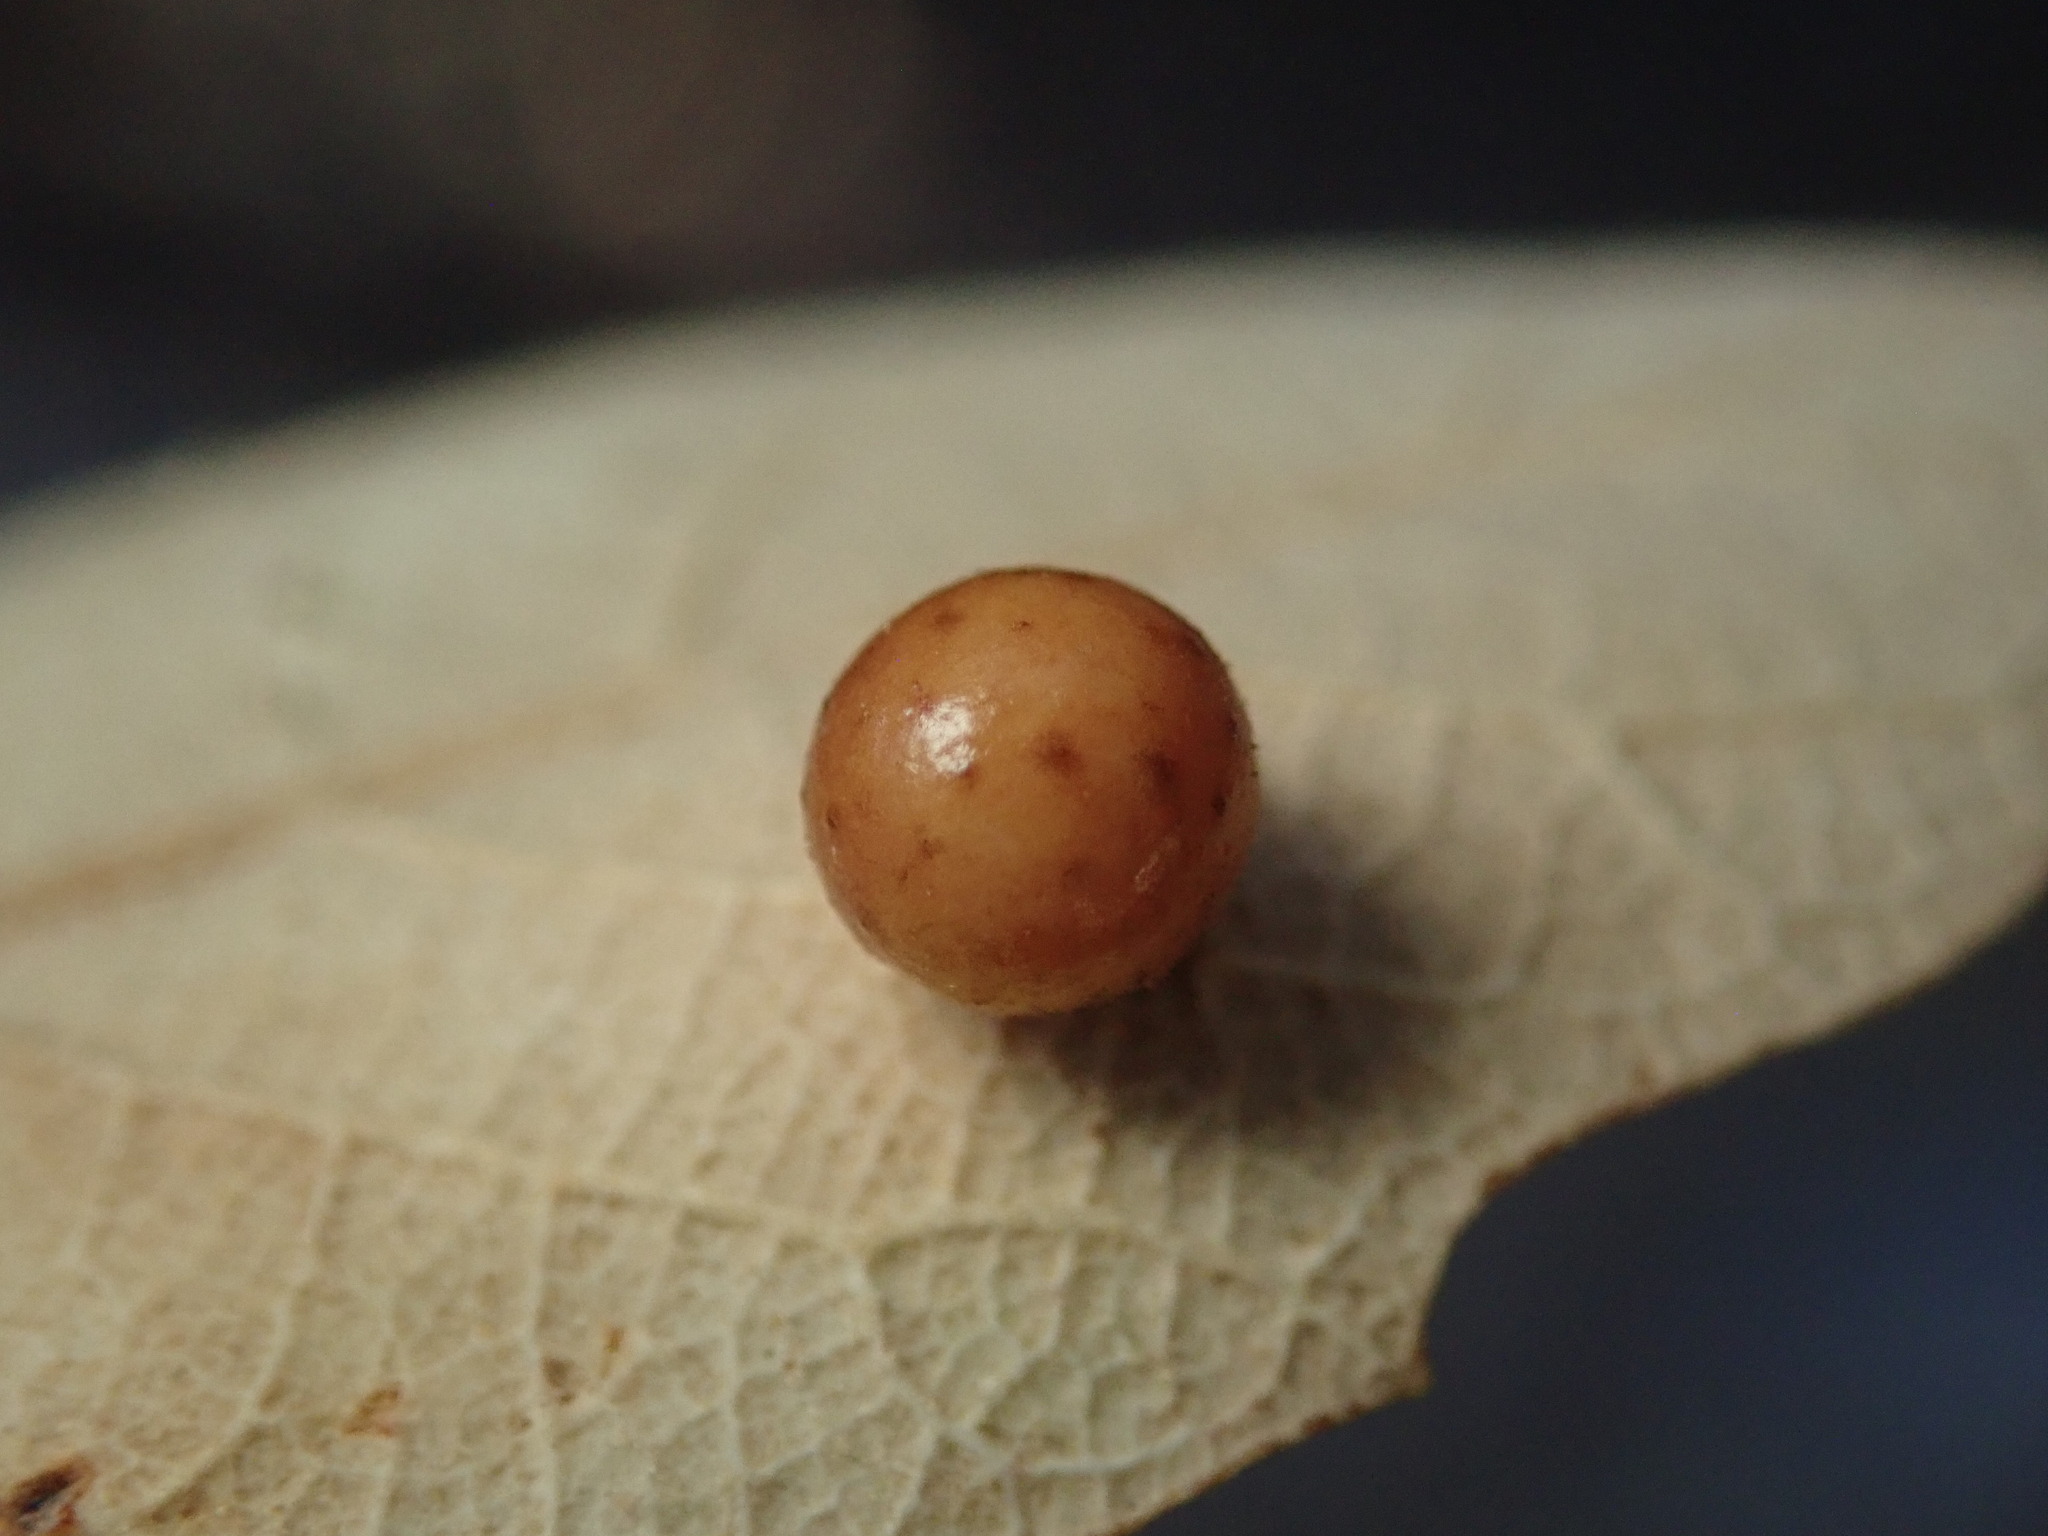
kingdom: Animalia
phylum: Arthropoda
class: Insecta
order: Hymenoptera
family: Cynipidae
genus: Biorhiza
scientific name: Biorhiza
